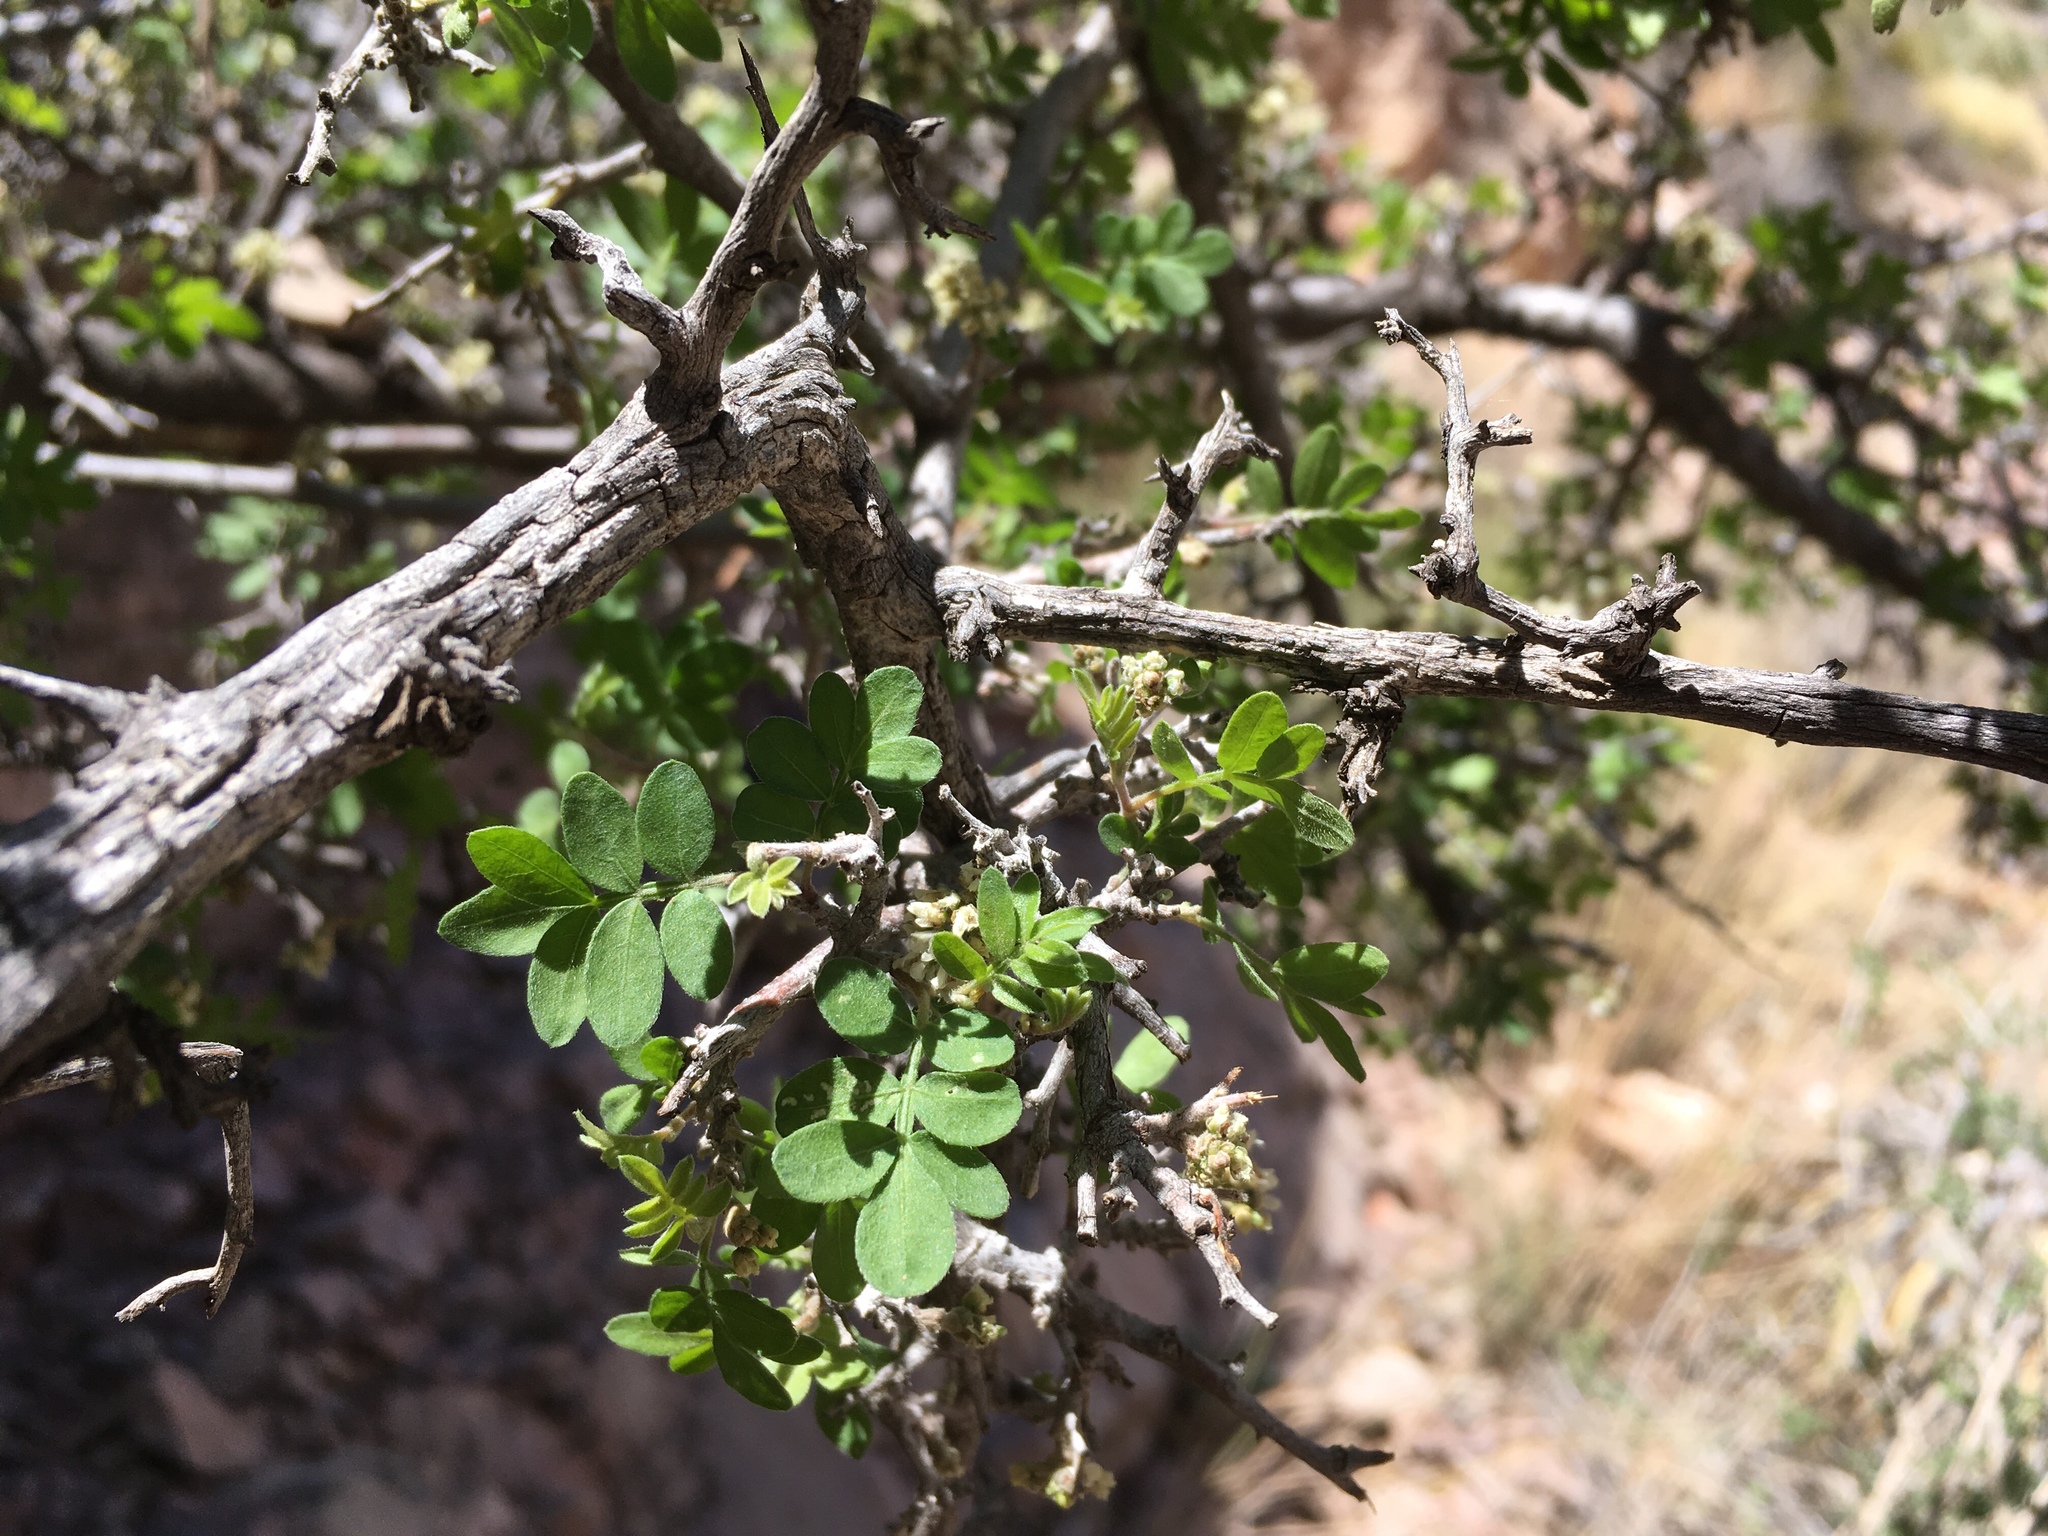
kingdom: Plantae
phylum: Tracheophyta
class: Magnoliopsida
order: Sapindales
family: Anacardiaceae
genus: Rhus
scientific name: Rhus microphylla
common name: Desert sumac
